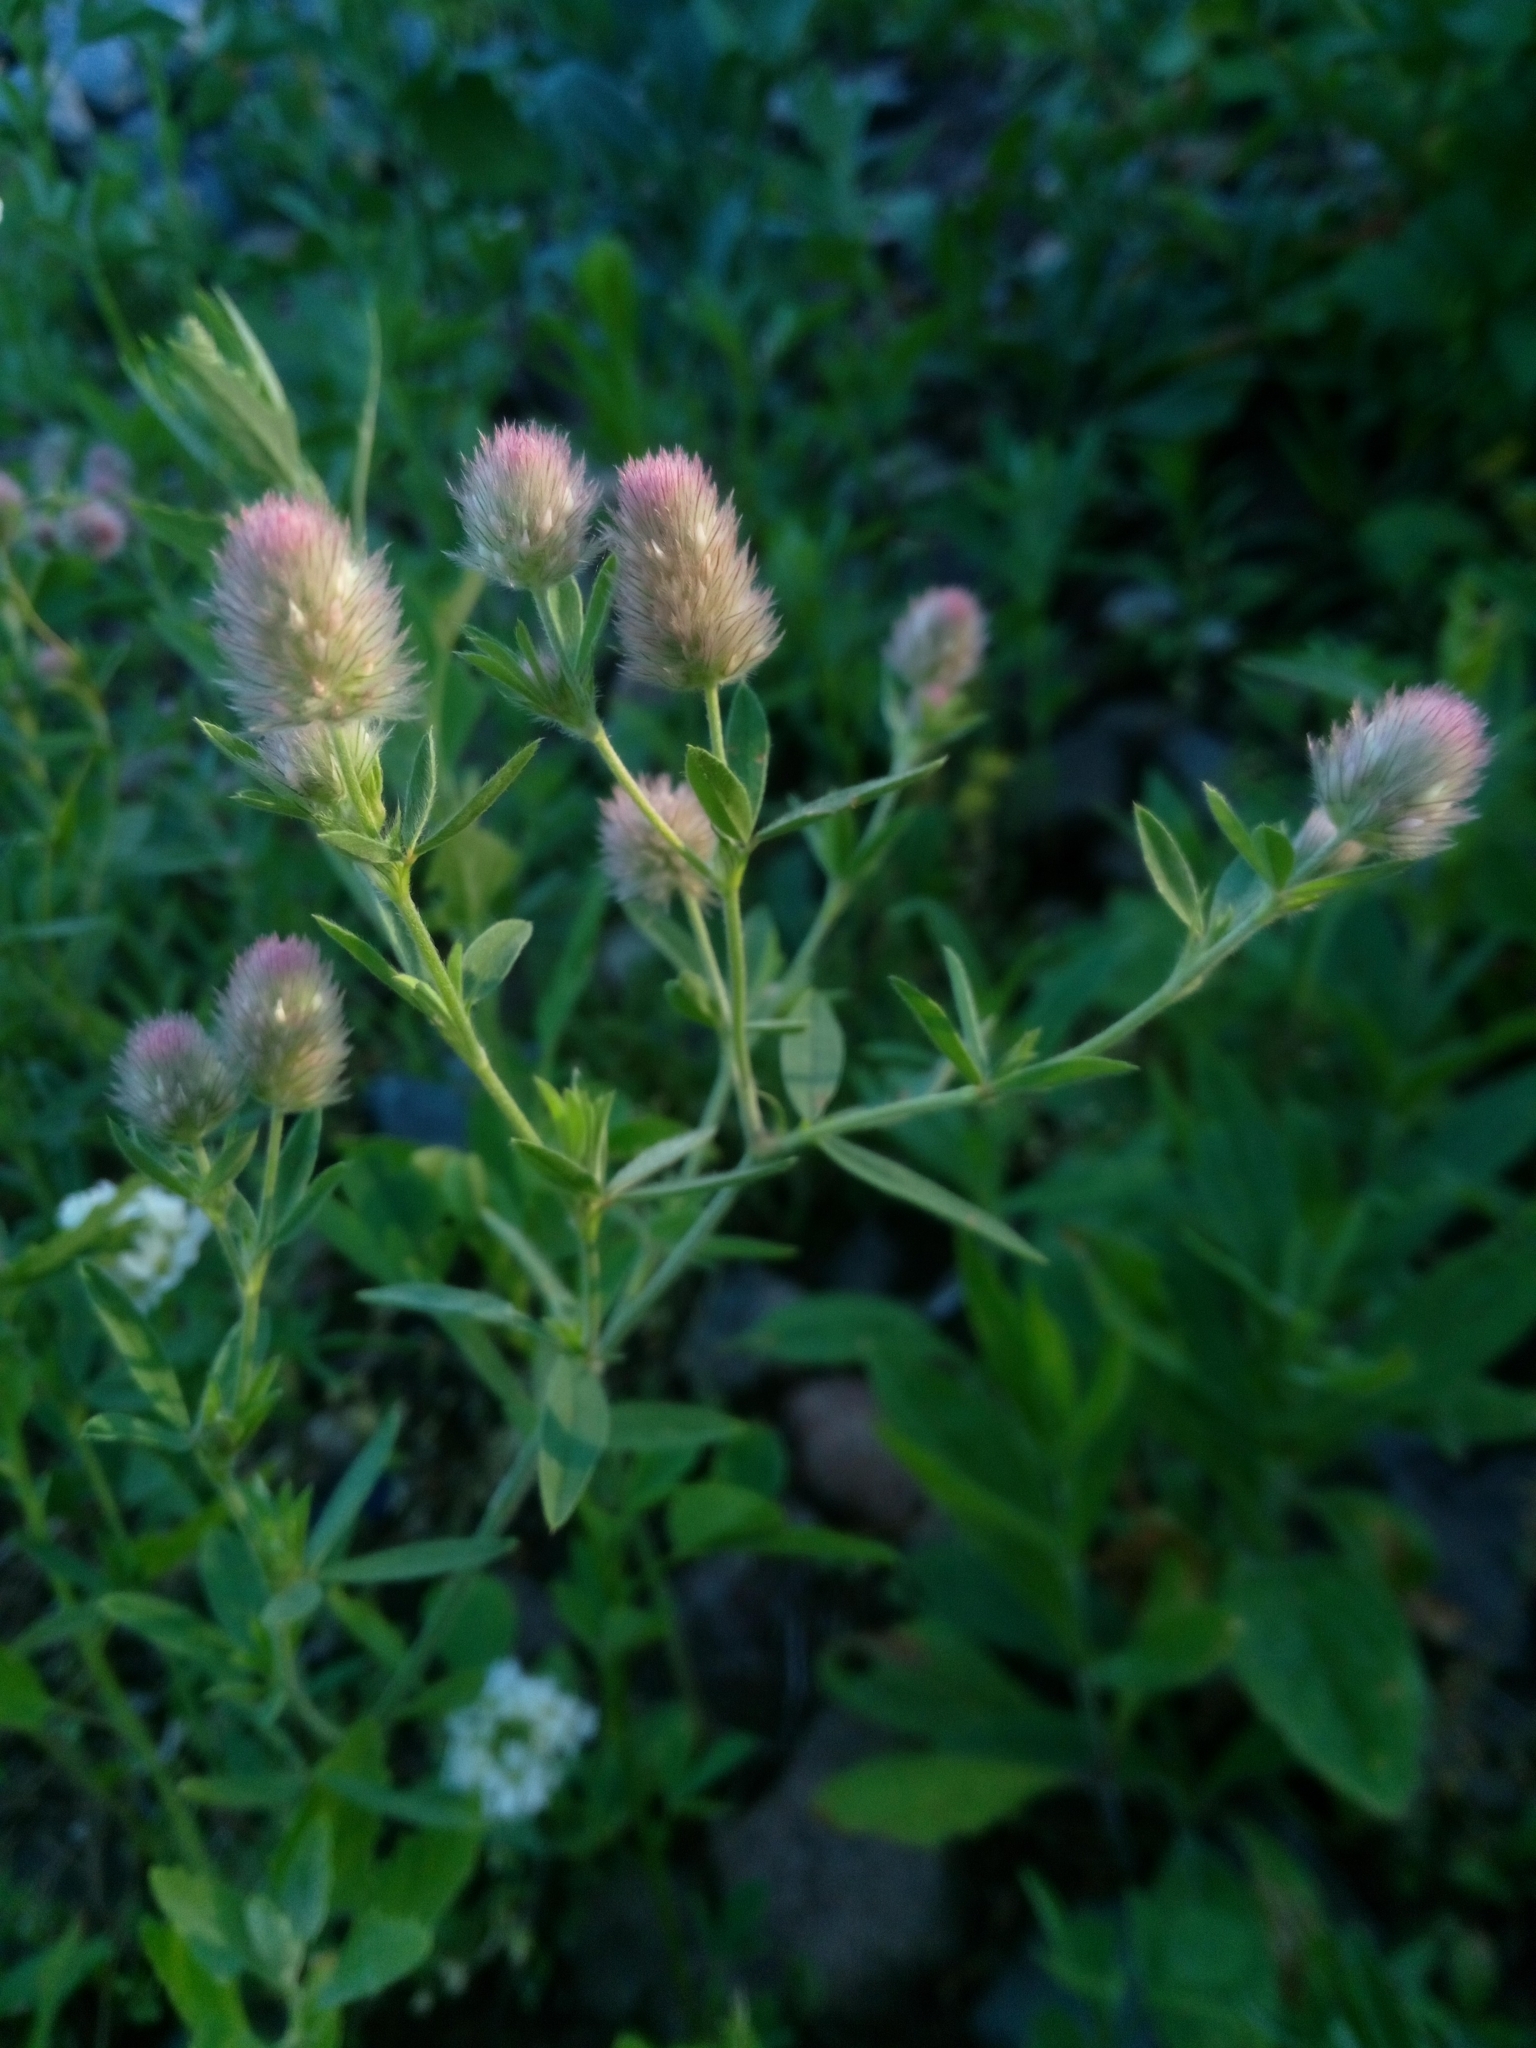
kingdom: Plantae
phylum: Tracheophyta
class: Magnoliopsida
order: Fabales
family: Fabaceae
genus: Trifolium
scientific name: Trifolium arvense
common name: Hare's-foot clover
